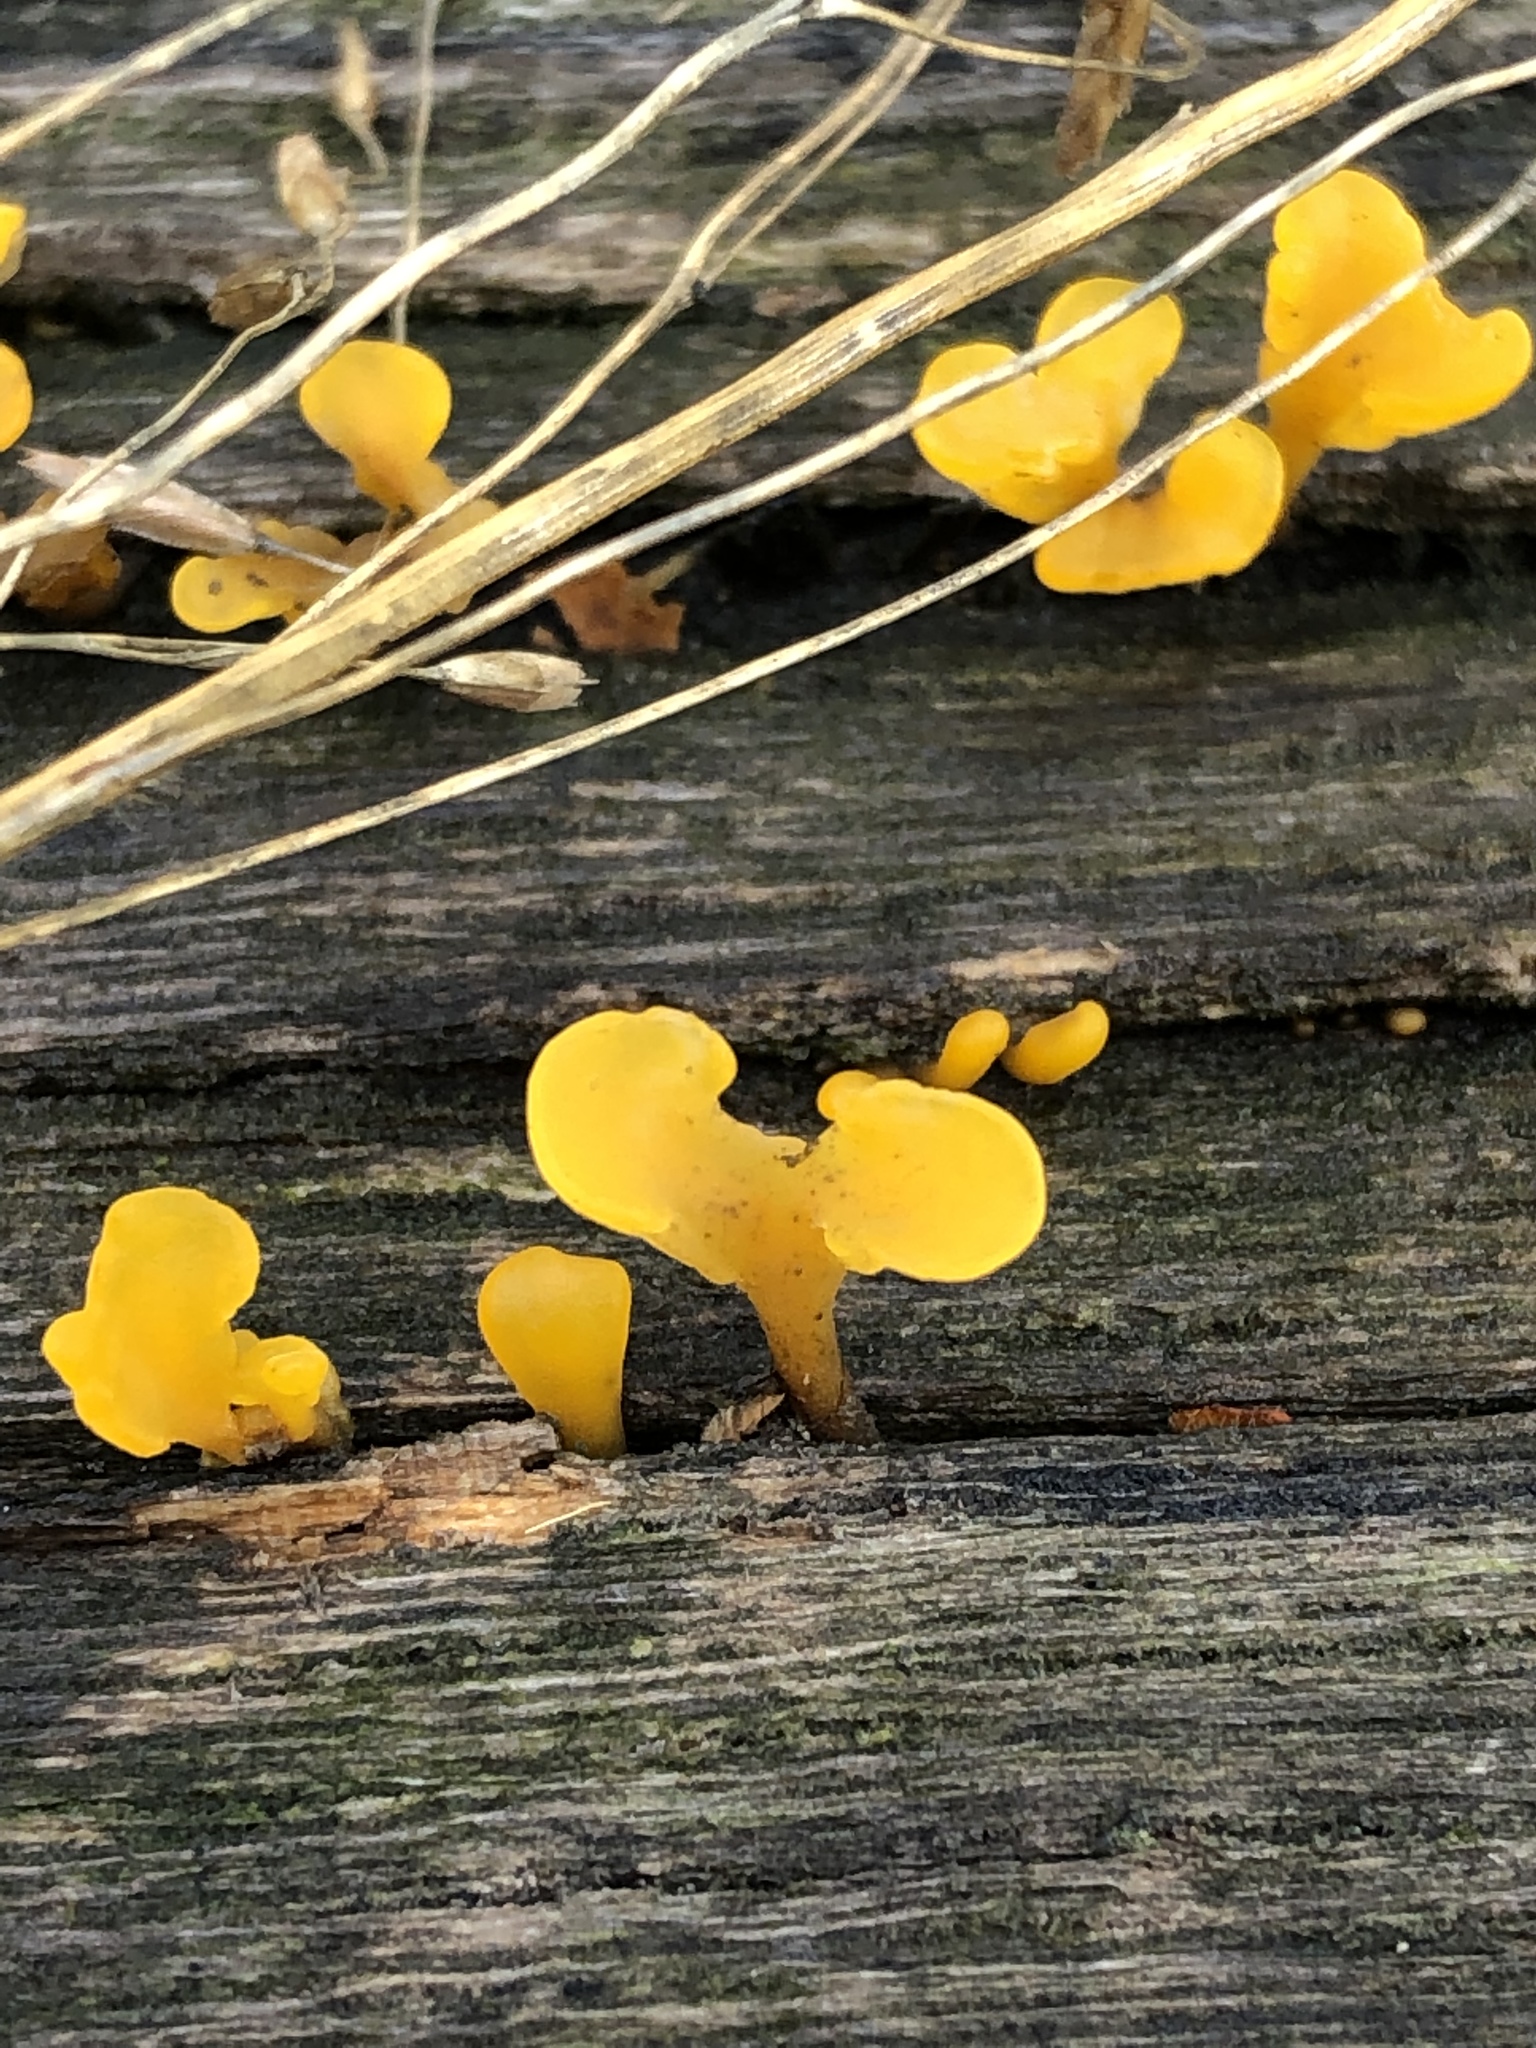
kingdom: Fungi
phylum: Basidiomycota
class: Dacrymycetes
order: Dacrymycetales
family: Dacrymycetaceae
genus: Dacrymyces
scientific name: Dacrymyces spathularius
